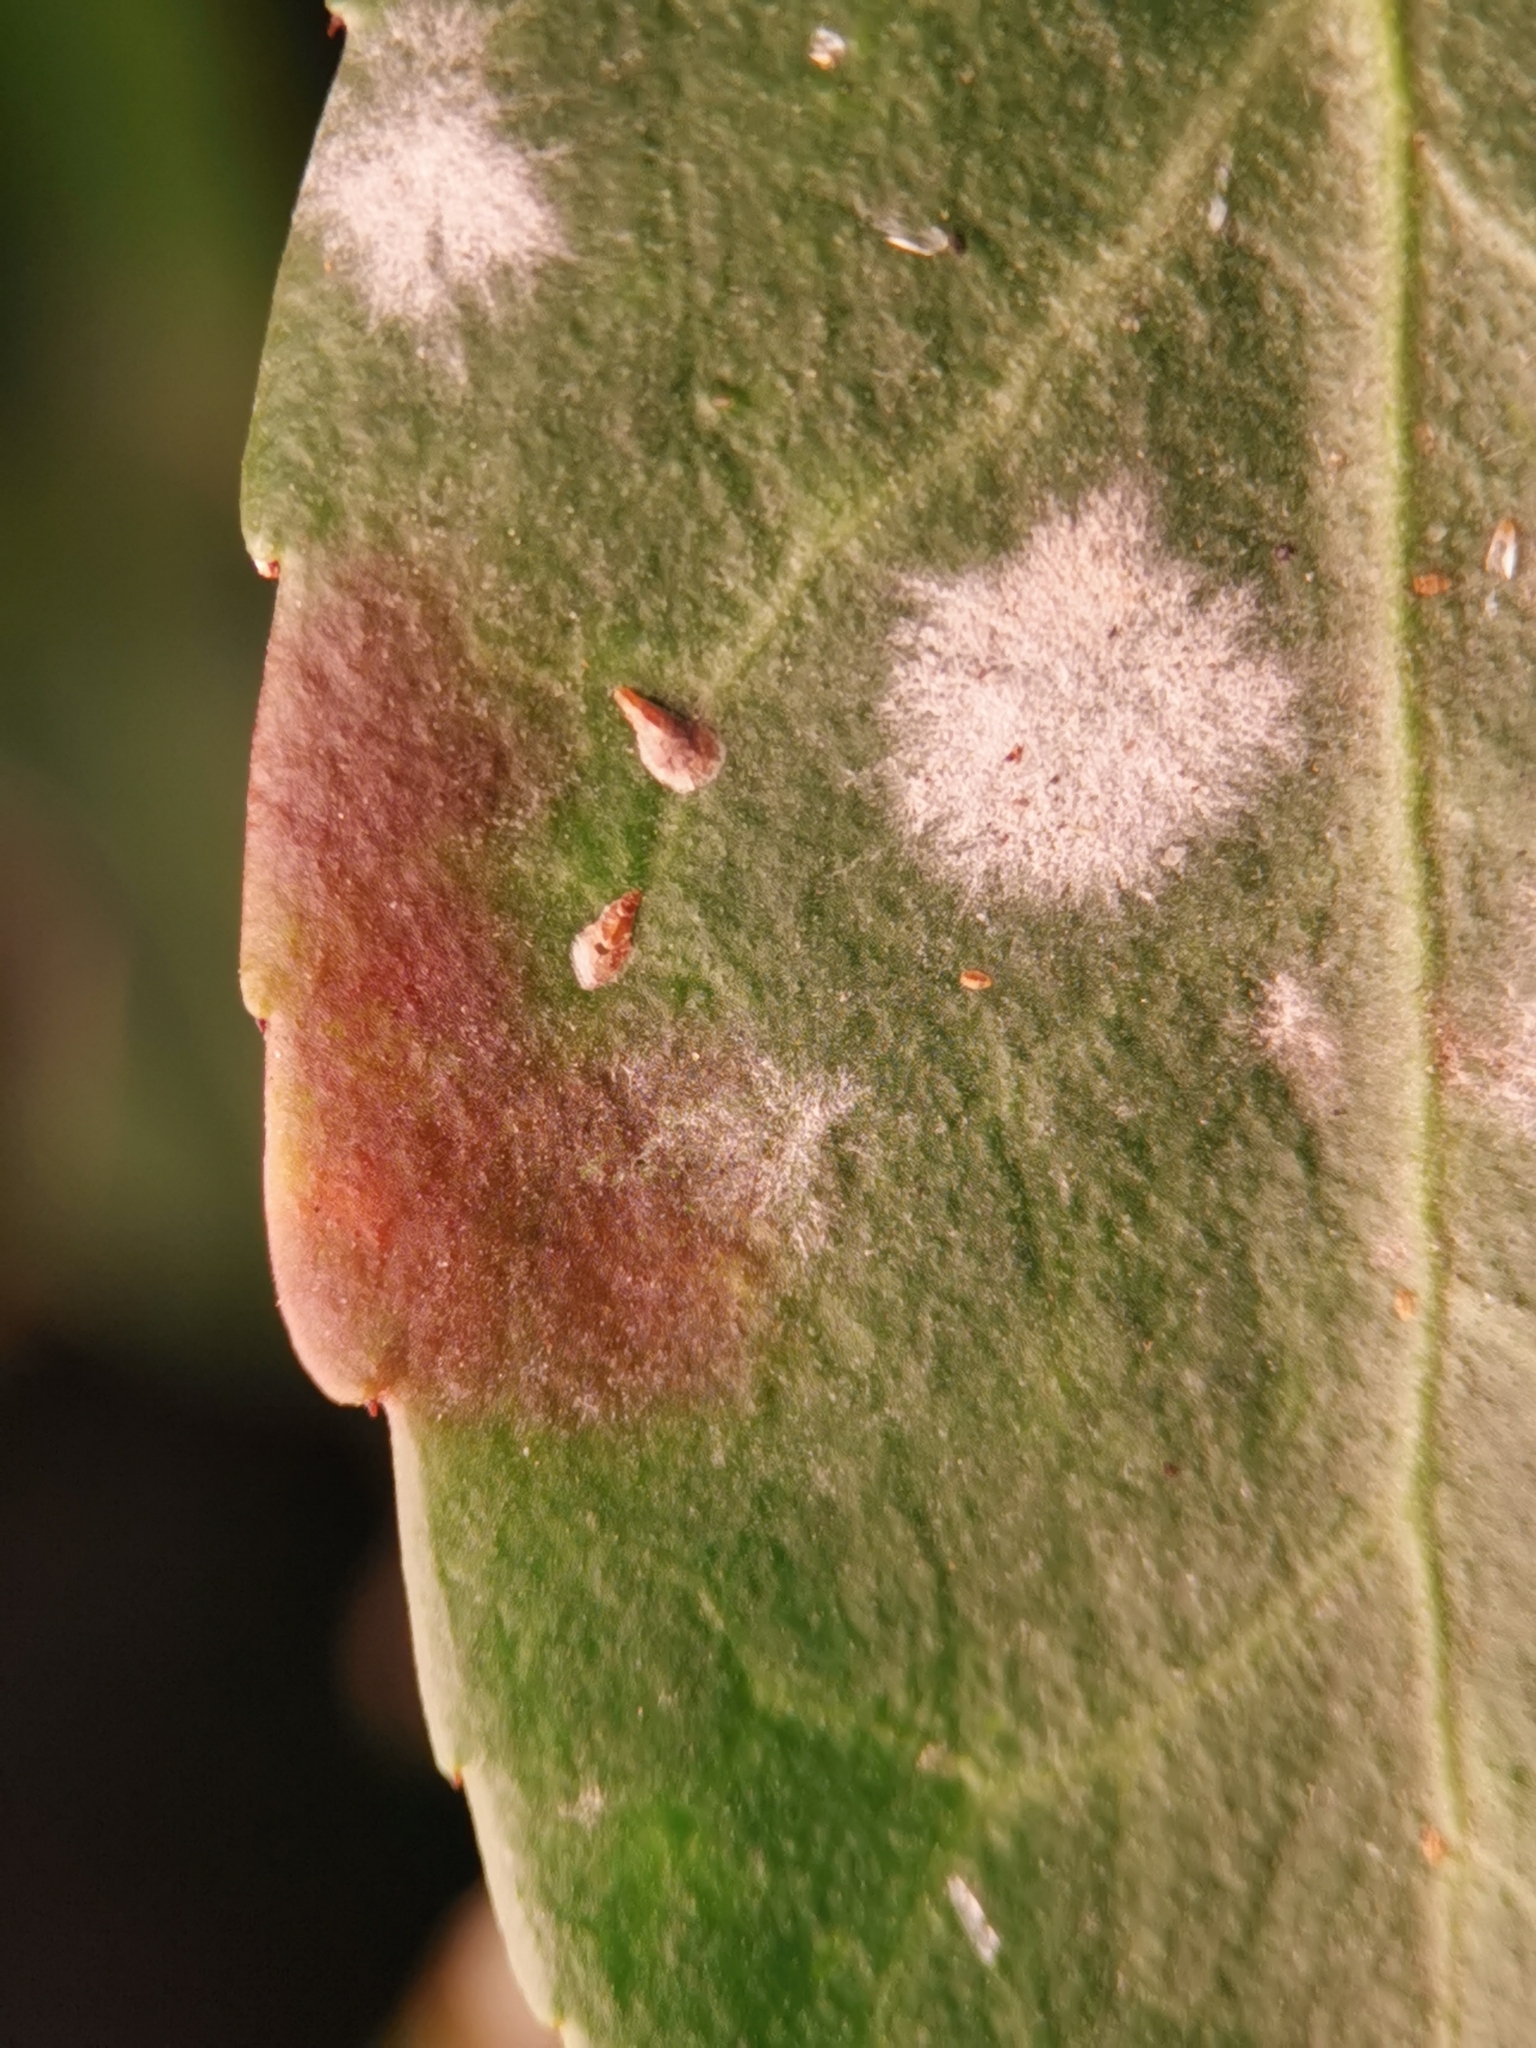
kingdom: Animalia
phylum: Arthropoda
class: Insecta
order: Hemiptera
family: Diaspididae
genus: Unaspis
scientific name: Unaspis euonymi
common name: Euonymus scale
